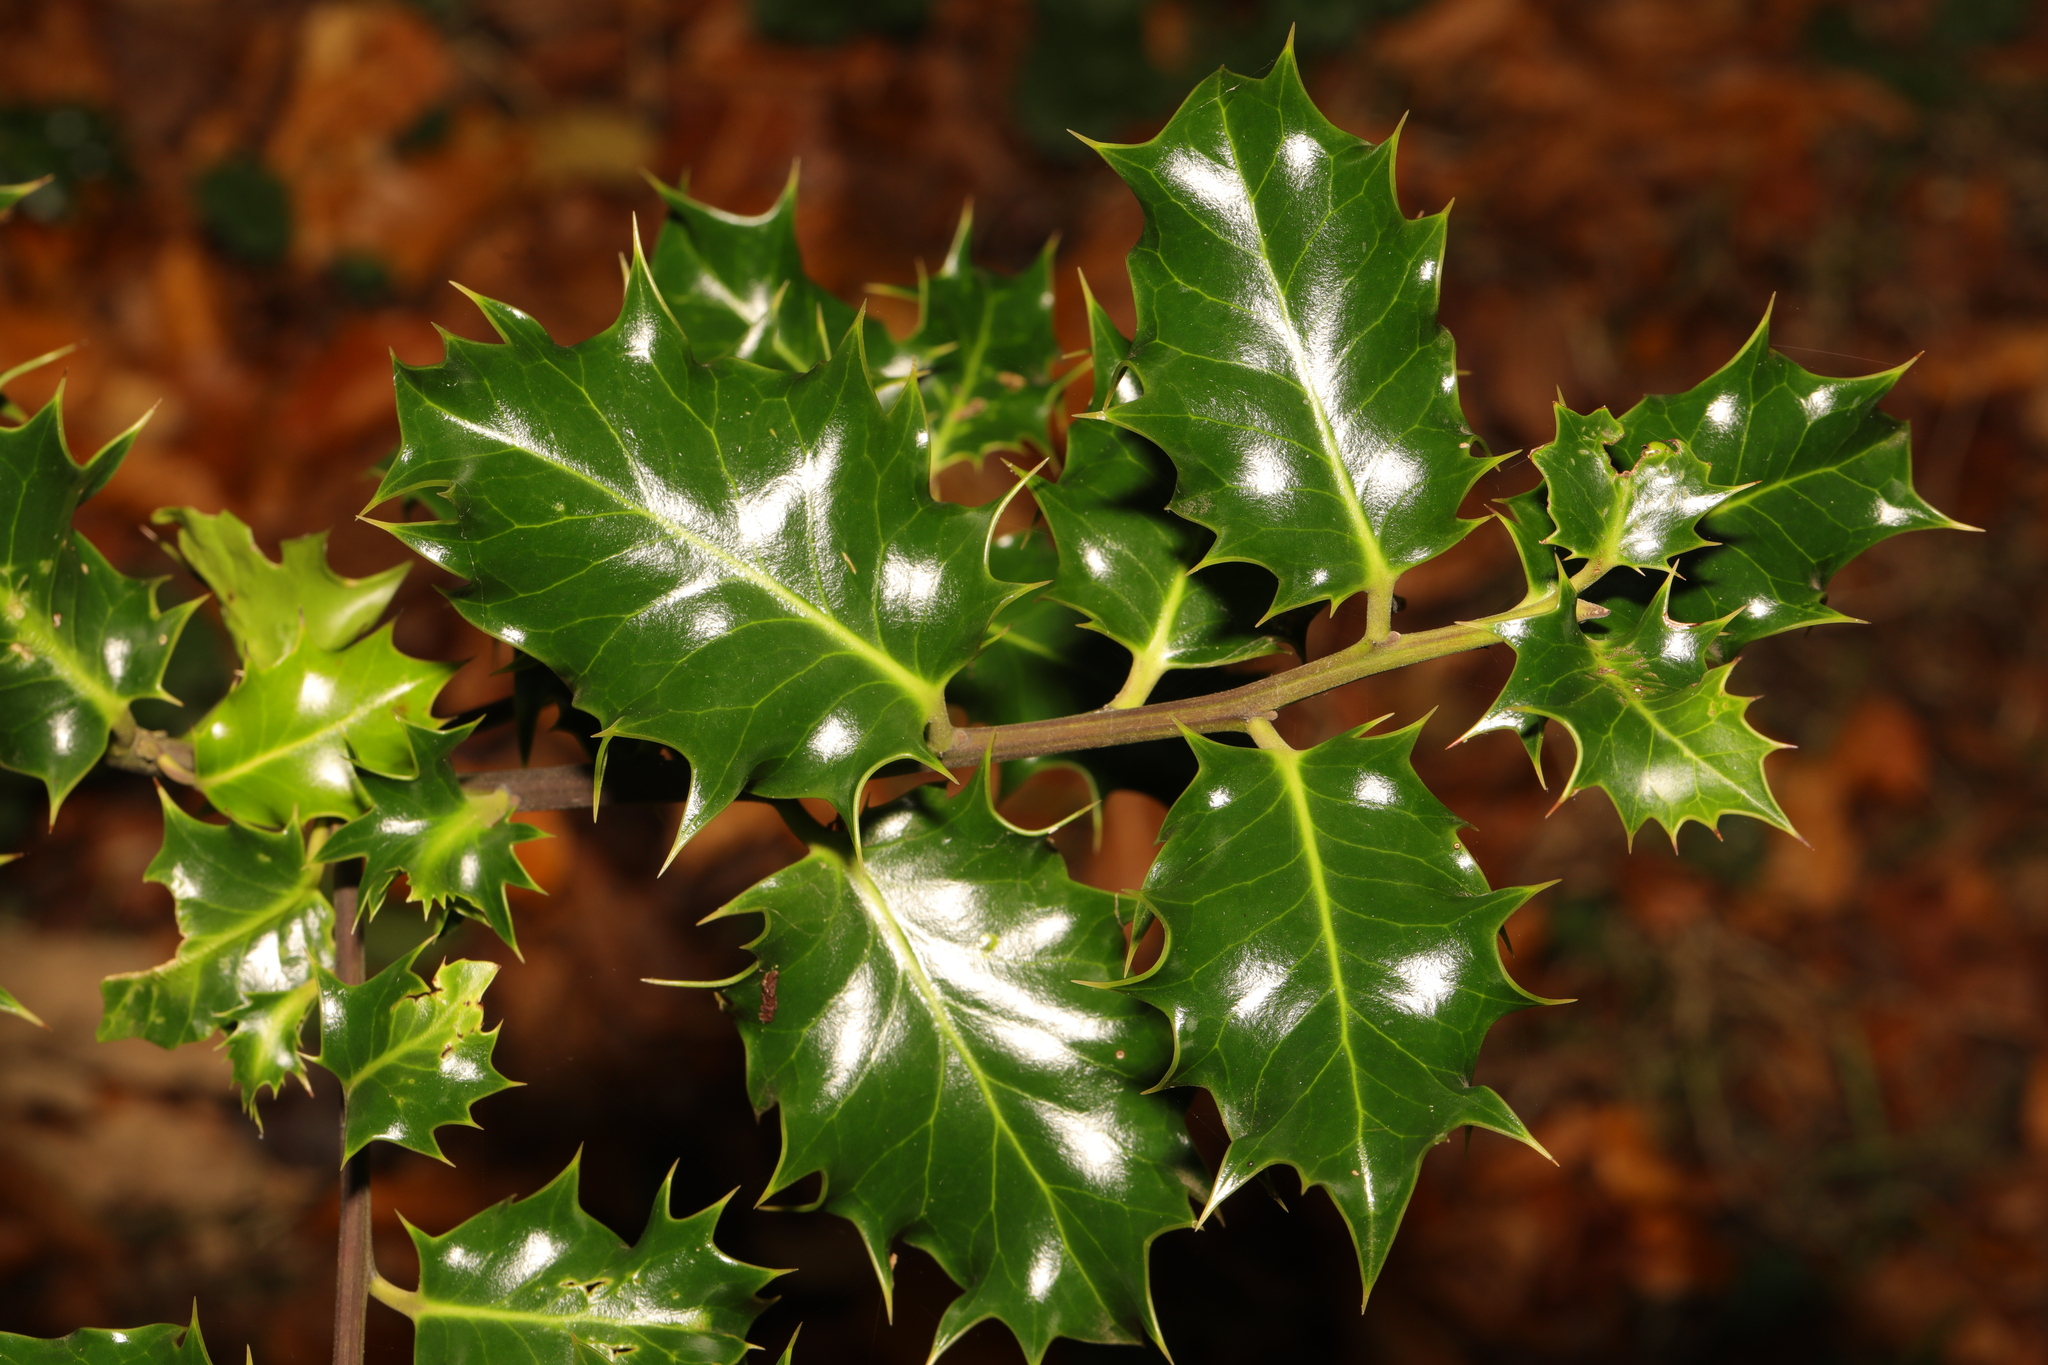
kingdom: Plantae
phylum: Tracheophyta
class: Magnoliopsida
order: Aquifoliales
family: Aquifoliaceae
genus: Ilex
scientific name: Ilex aquifolium
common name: English holly
